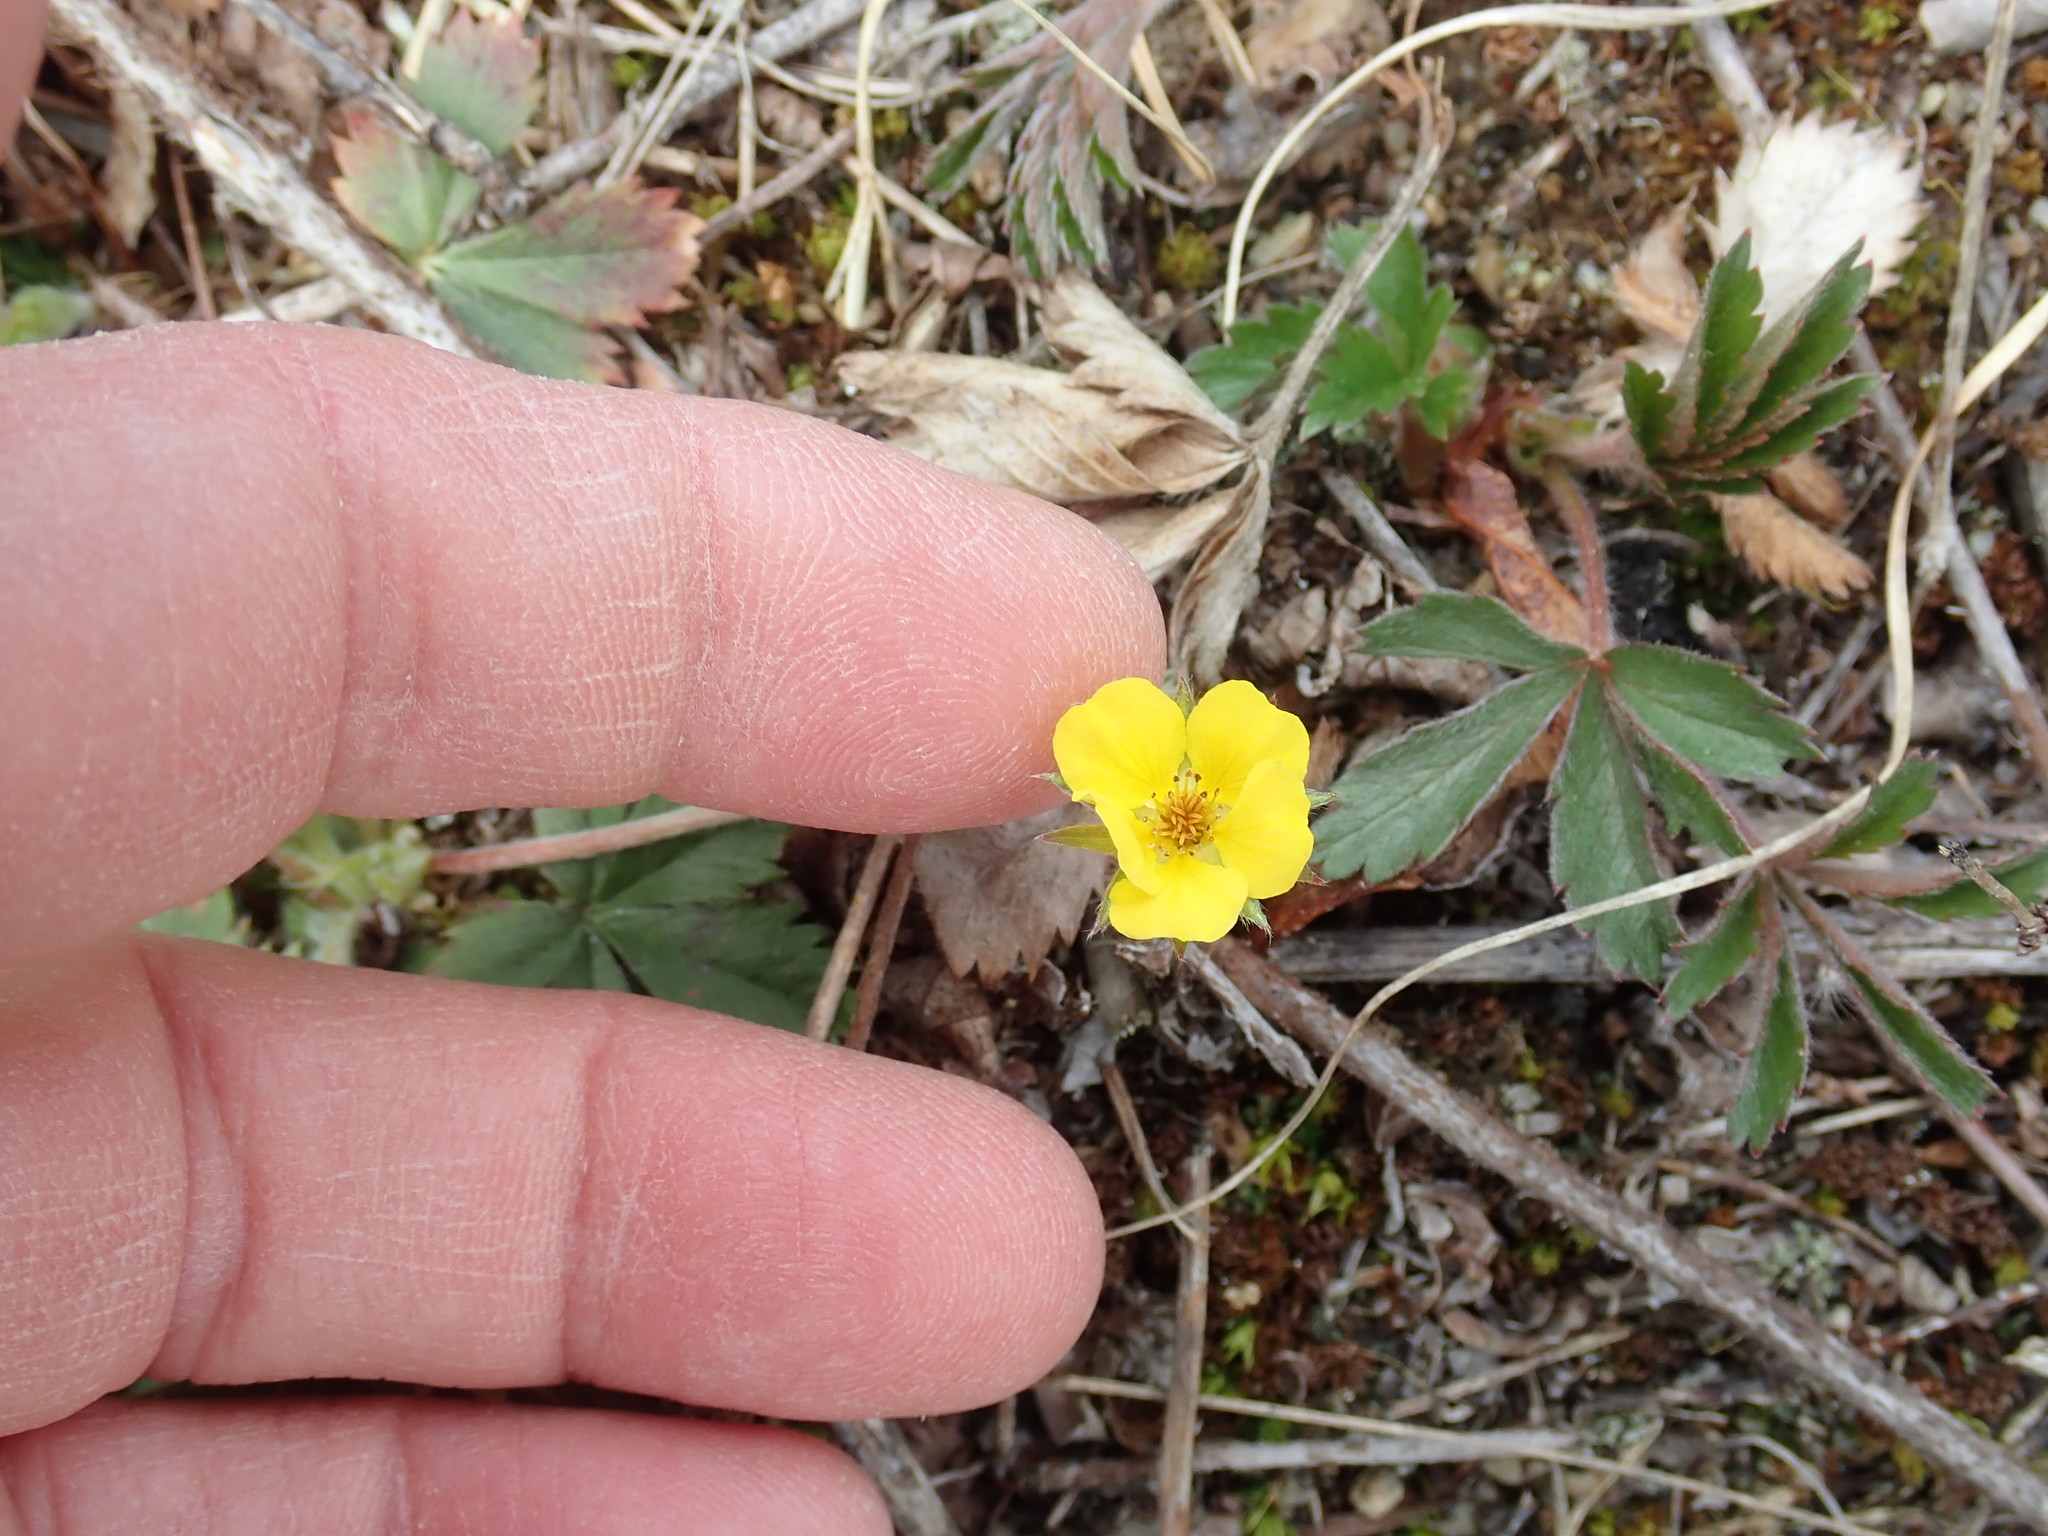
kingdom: Plantae
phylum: Tracheophyta
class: Magnoliopsida
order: Rosales
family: Rosaceae
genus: Potentilla
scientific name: Potentilla canadensis
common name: Canada cinquefoil
